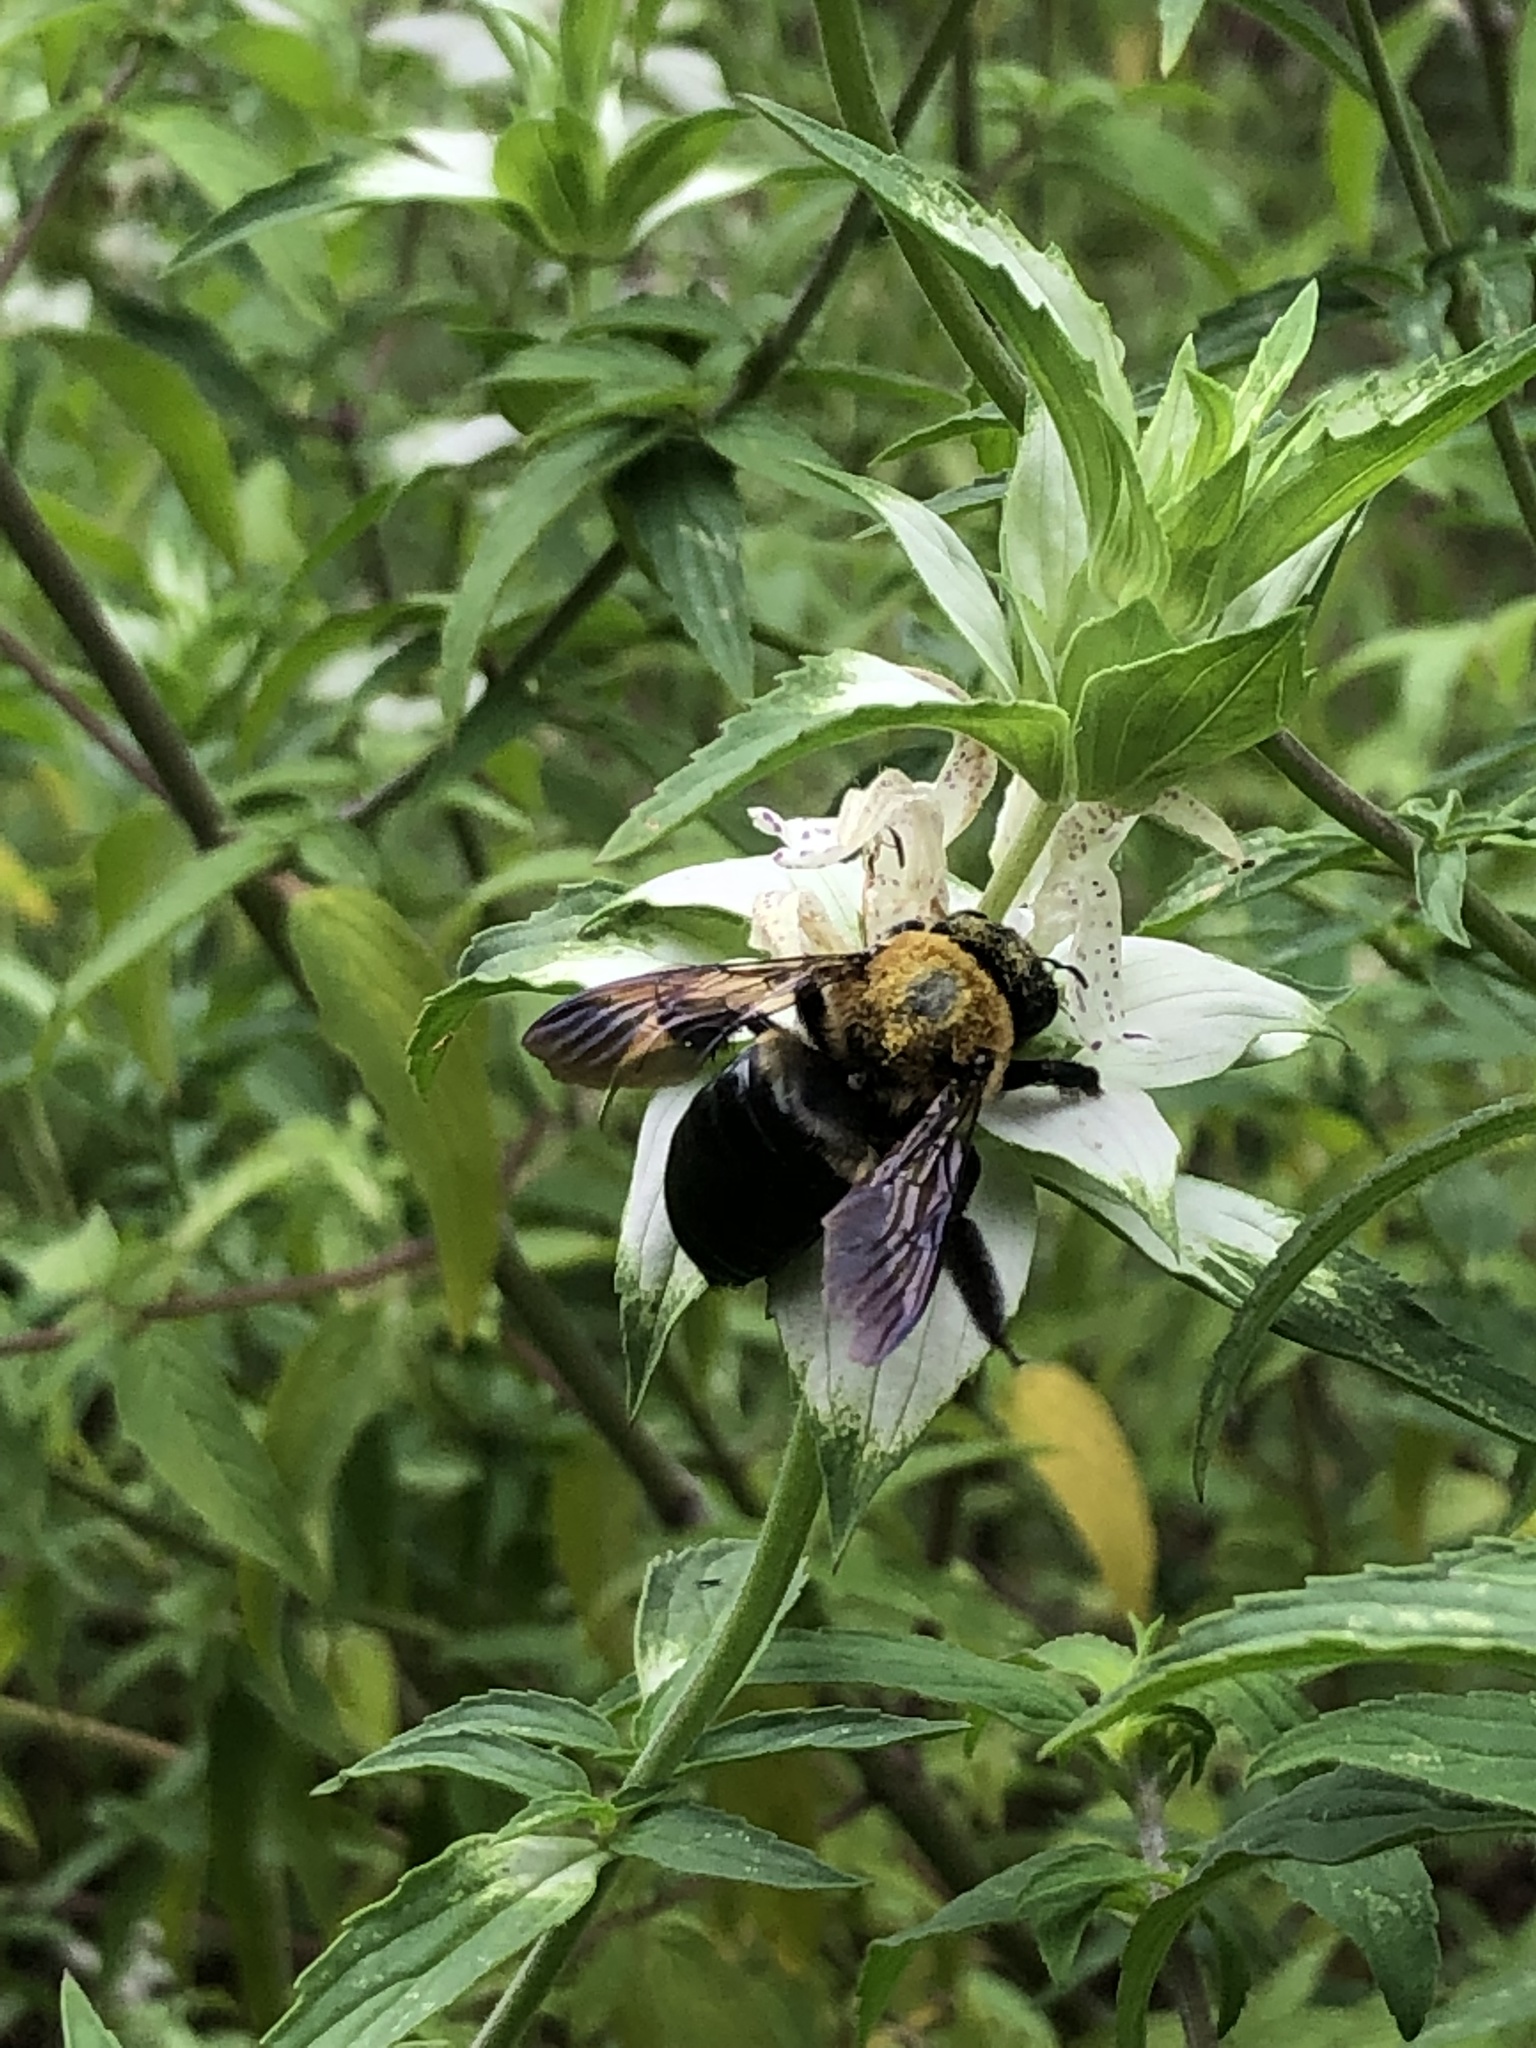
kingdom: Animalia
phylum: Arthropoda
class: Insecta
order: Hymenoptera
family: Apidae
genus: Xylocopa
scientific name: Xylocopa virginica
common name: Carpenter bee
